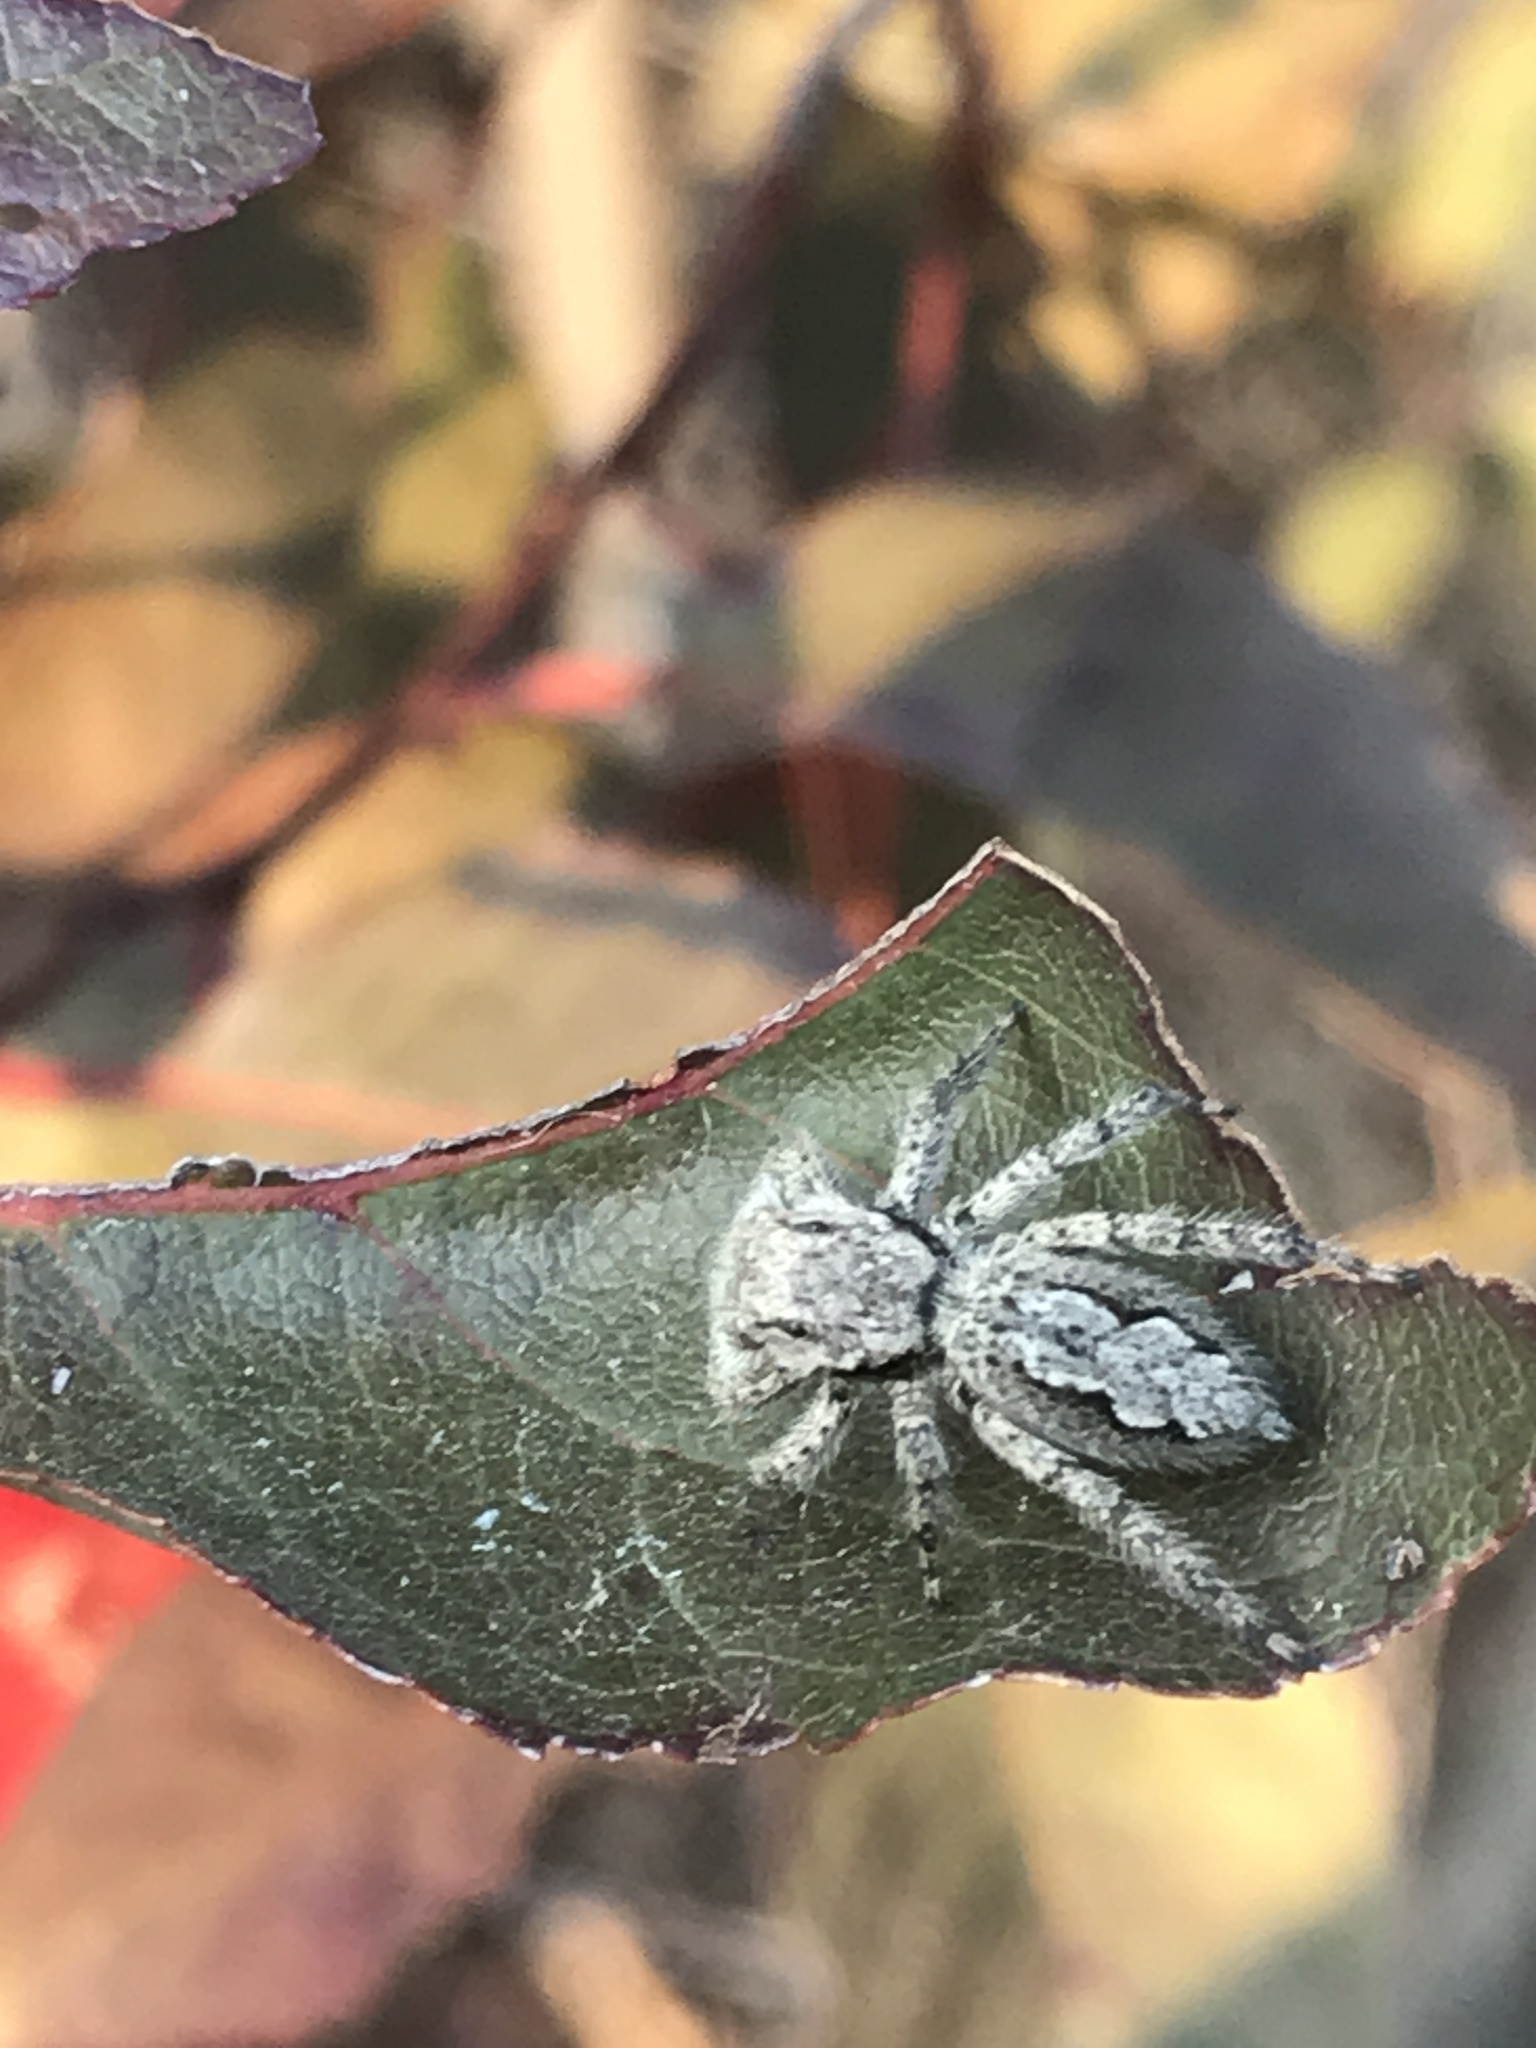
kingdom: Animalia
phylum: Arthropoda
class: Arachnida
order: Araneae
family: Salticidae
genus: Platycryptus
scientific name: Platycryptus undatus
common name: Tan jumping spider
